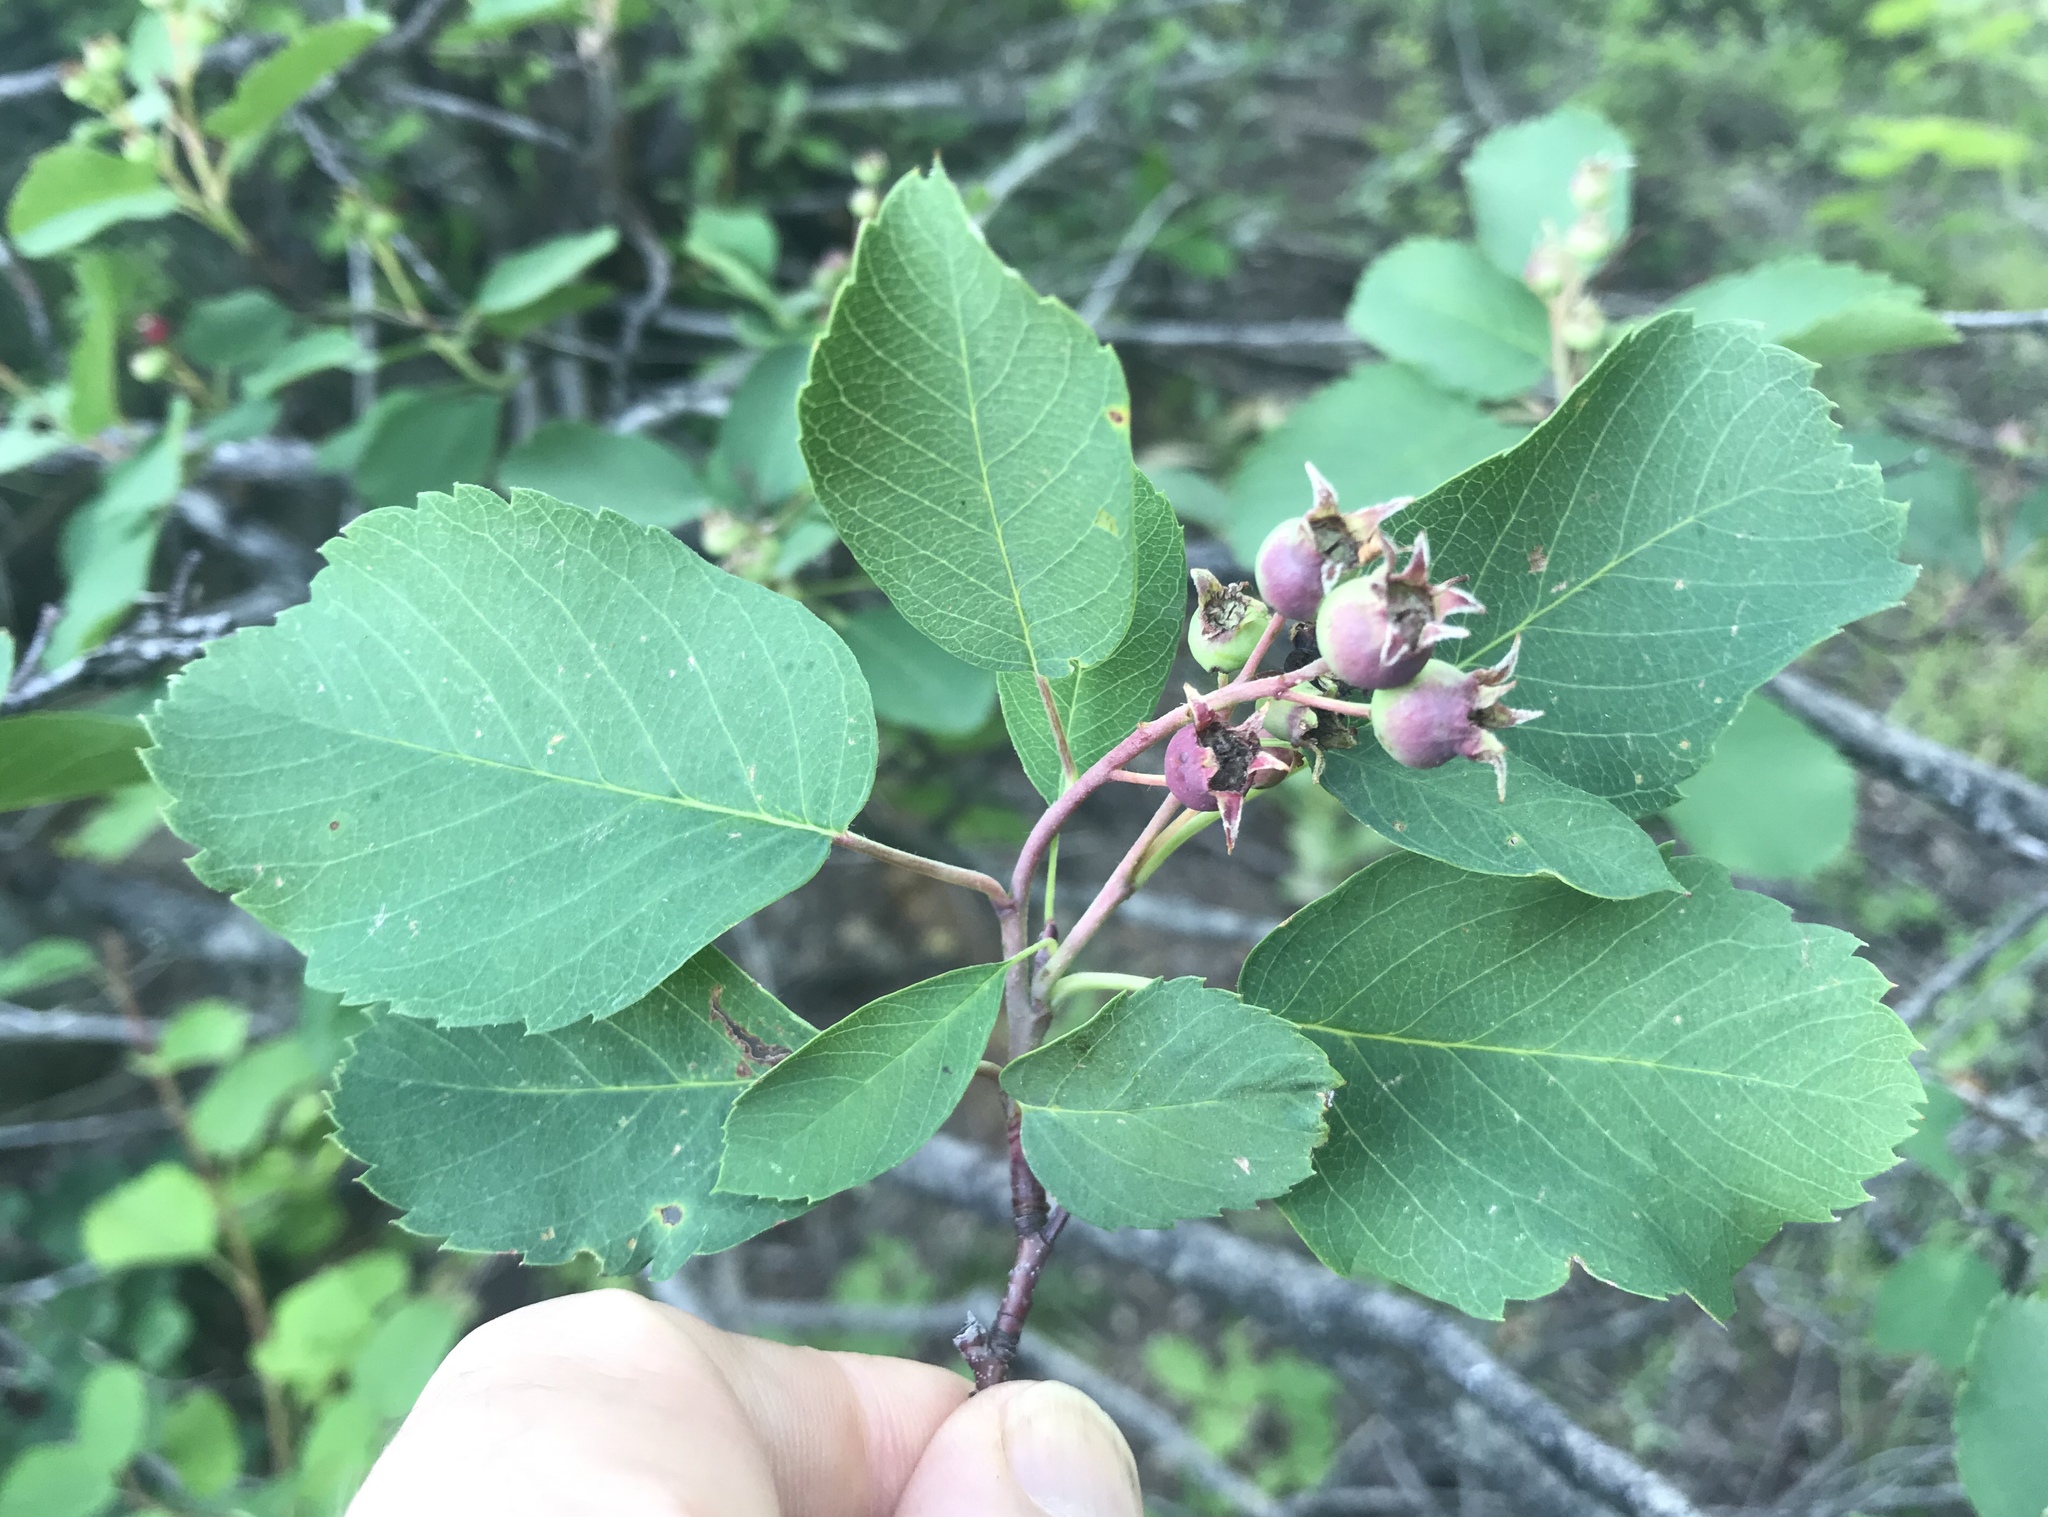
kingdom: Plantae
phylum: Tracheophyta
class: Magnoliopsida
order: Rosales
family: Rosaceae
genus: Amelanchier
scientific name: Amelanchier alnifolia
